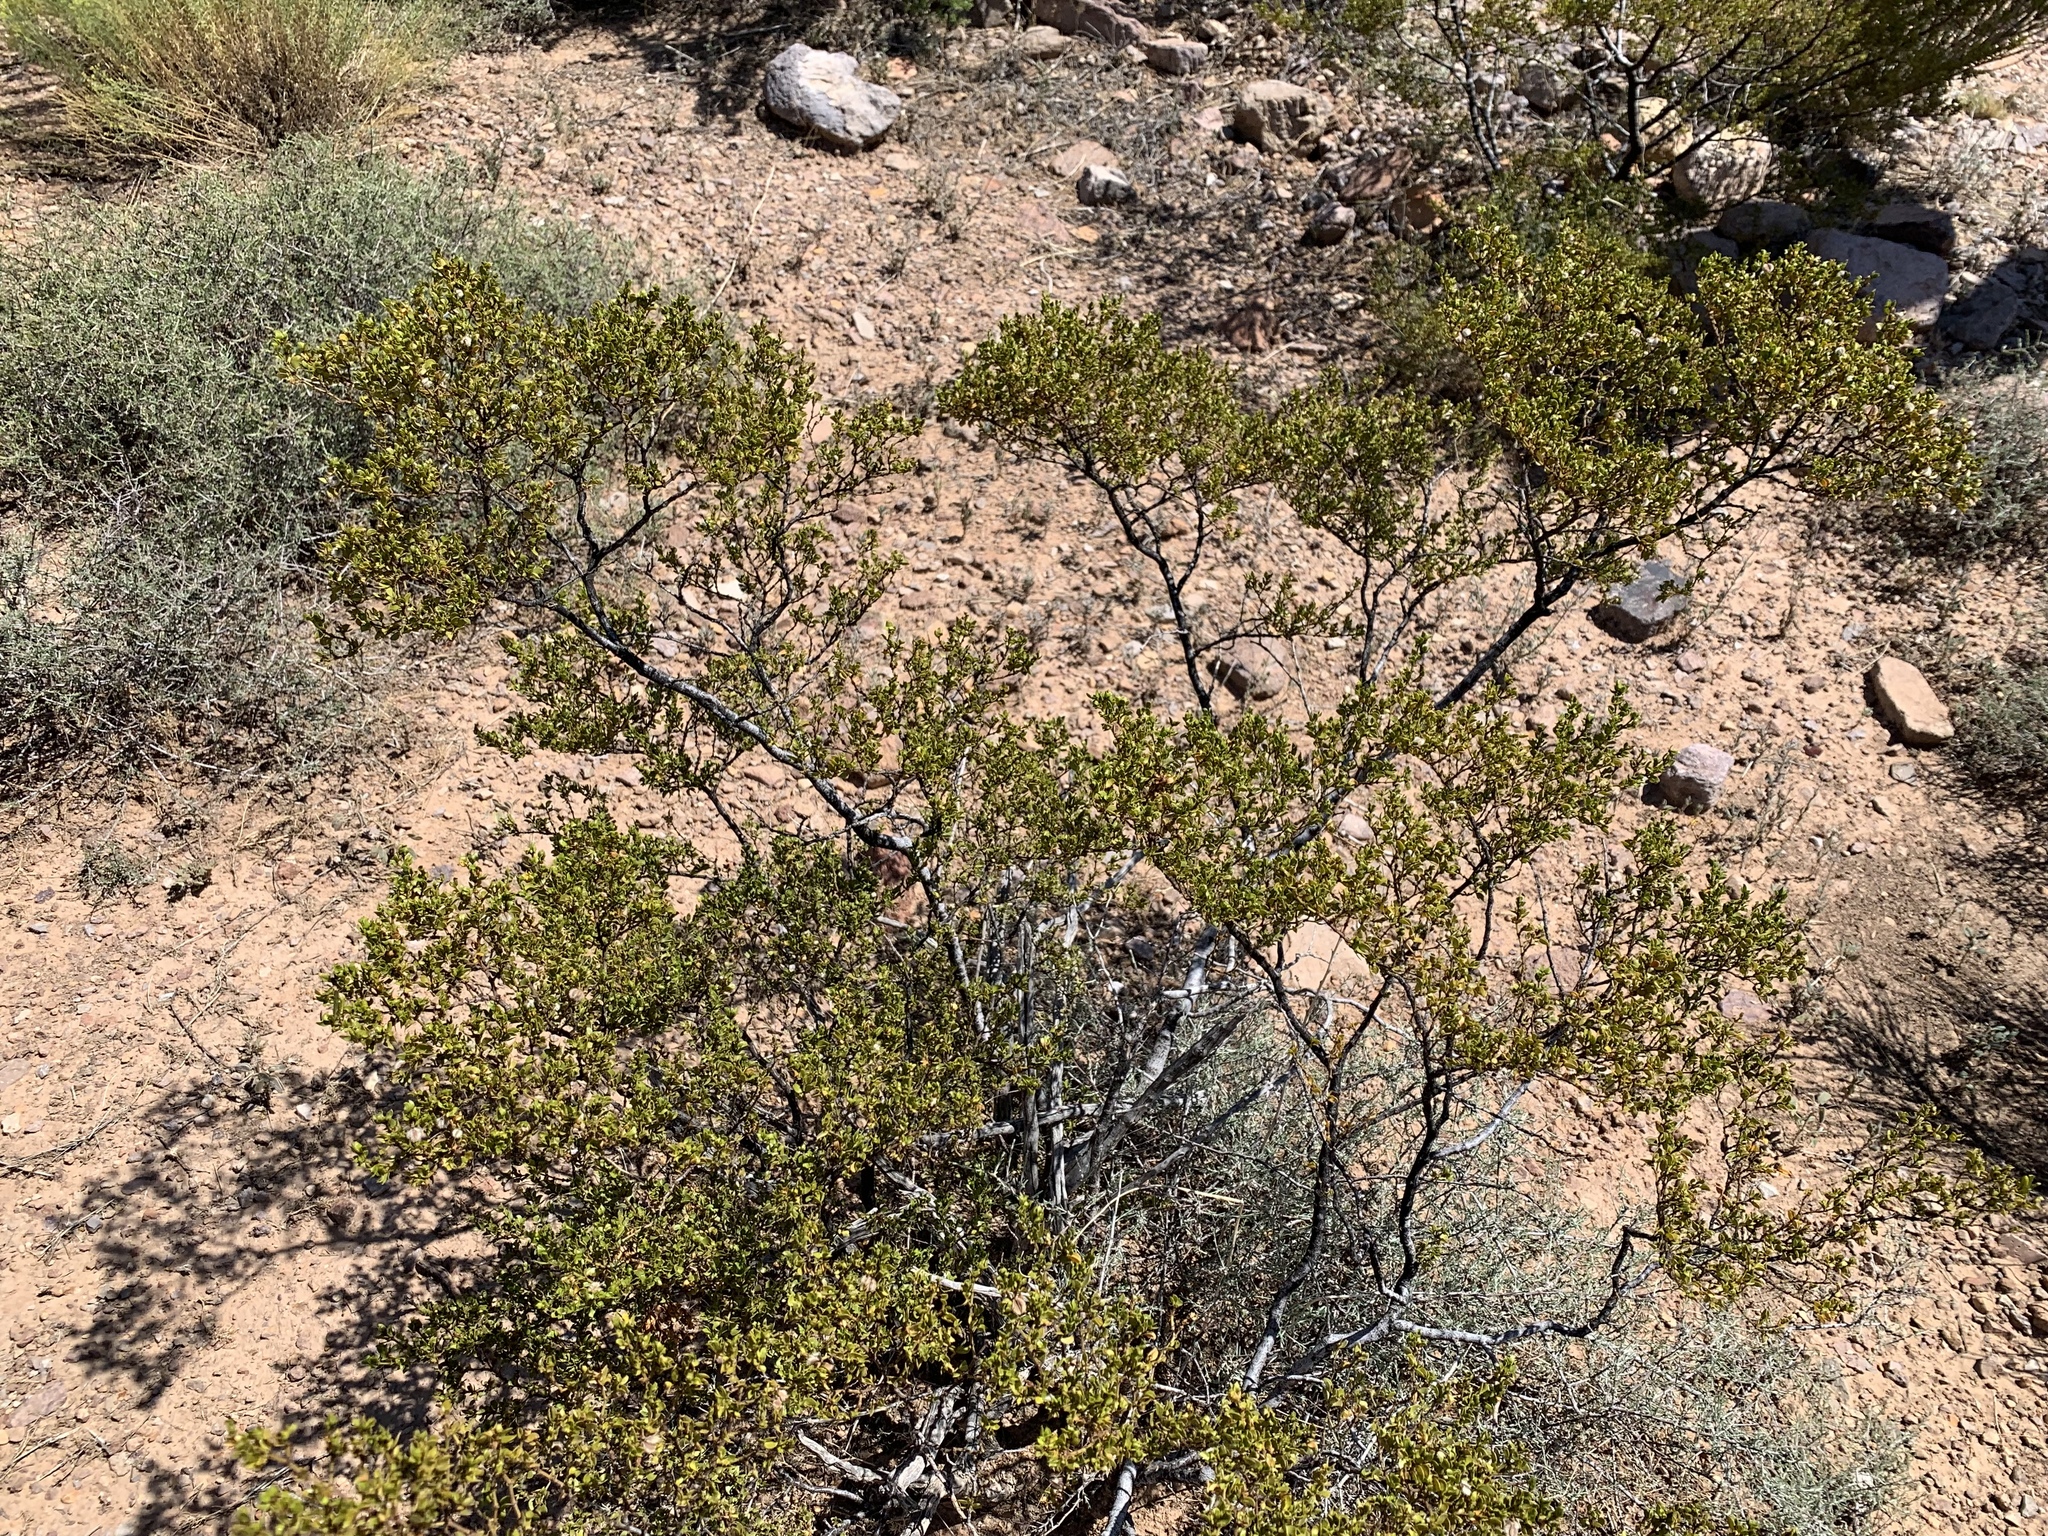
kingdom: Plantae
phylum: Tracheophyta
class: Magnoliopsida
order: Zygophyllales
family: Zygophyllaceae
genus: Larrea
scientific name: Larrea tridentata
